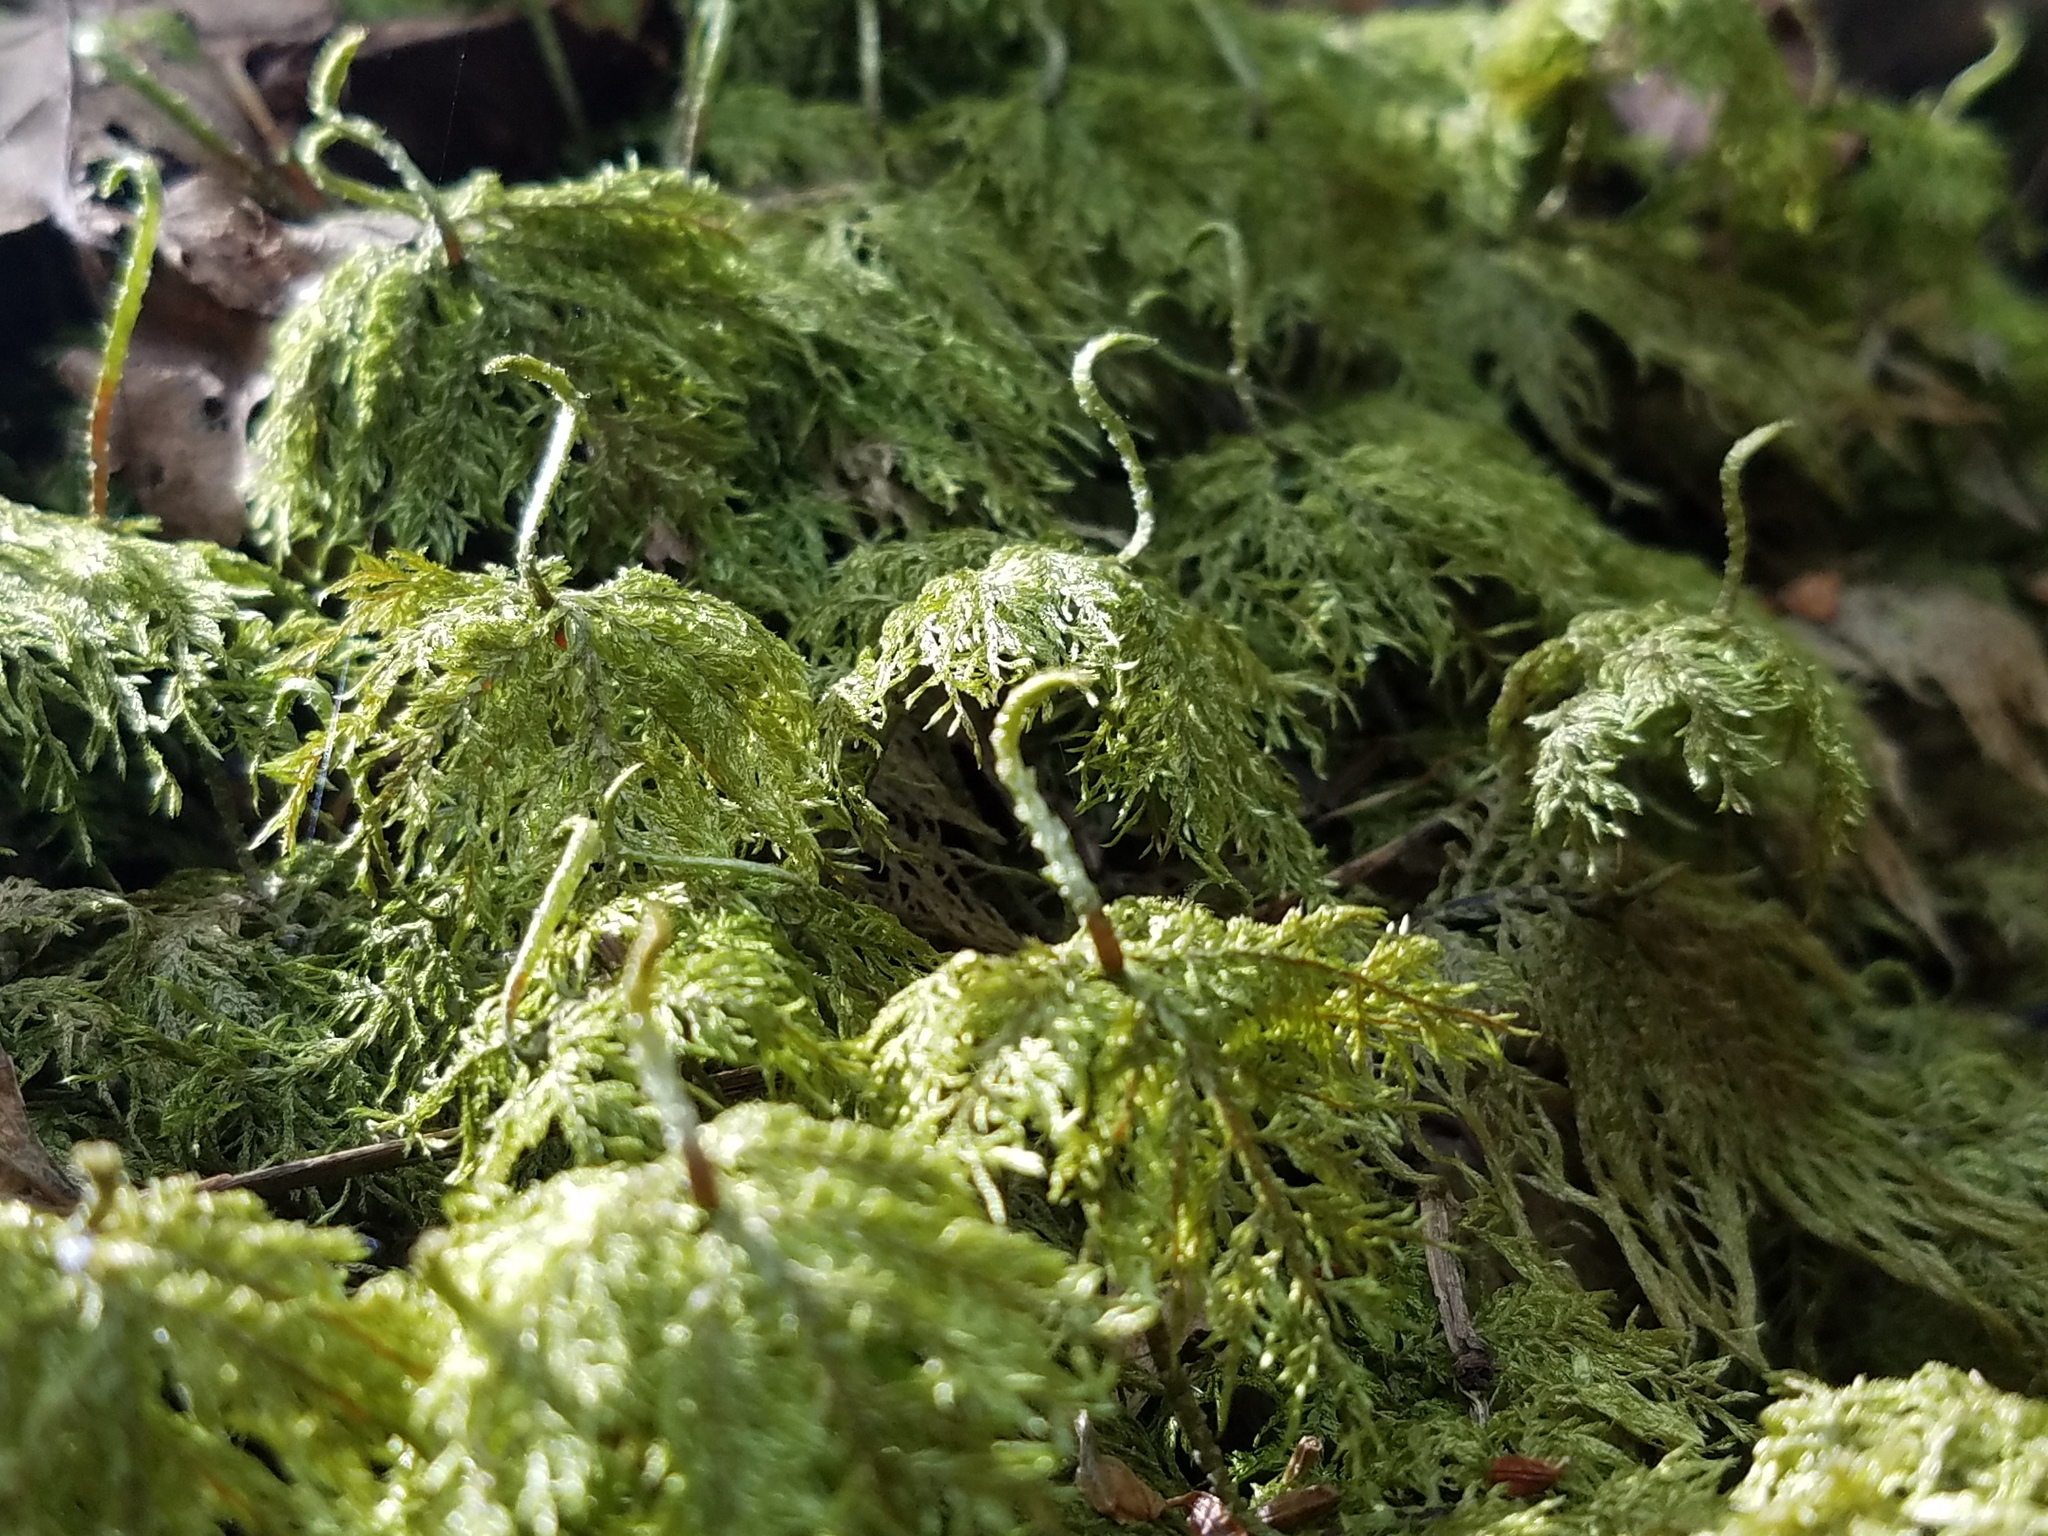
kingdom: Plantae
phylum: Bryophyta
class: Bryopsida
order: Hypnales
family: Hylocomiaceae
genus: Hylocomium
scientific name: Hylocomium splendens
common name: Stairstep moss
